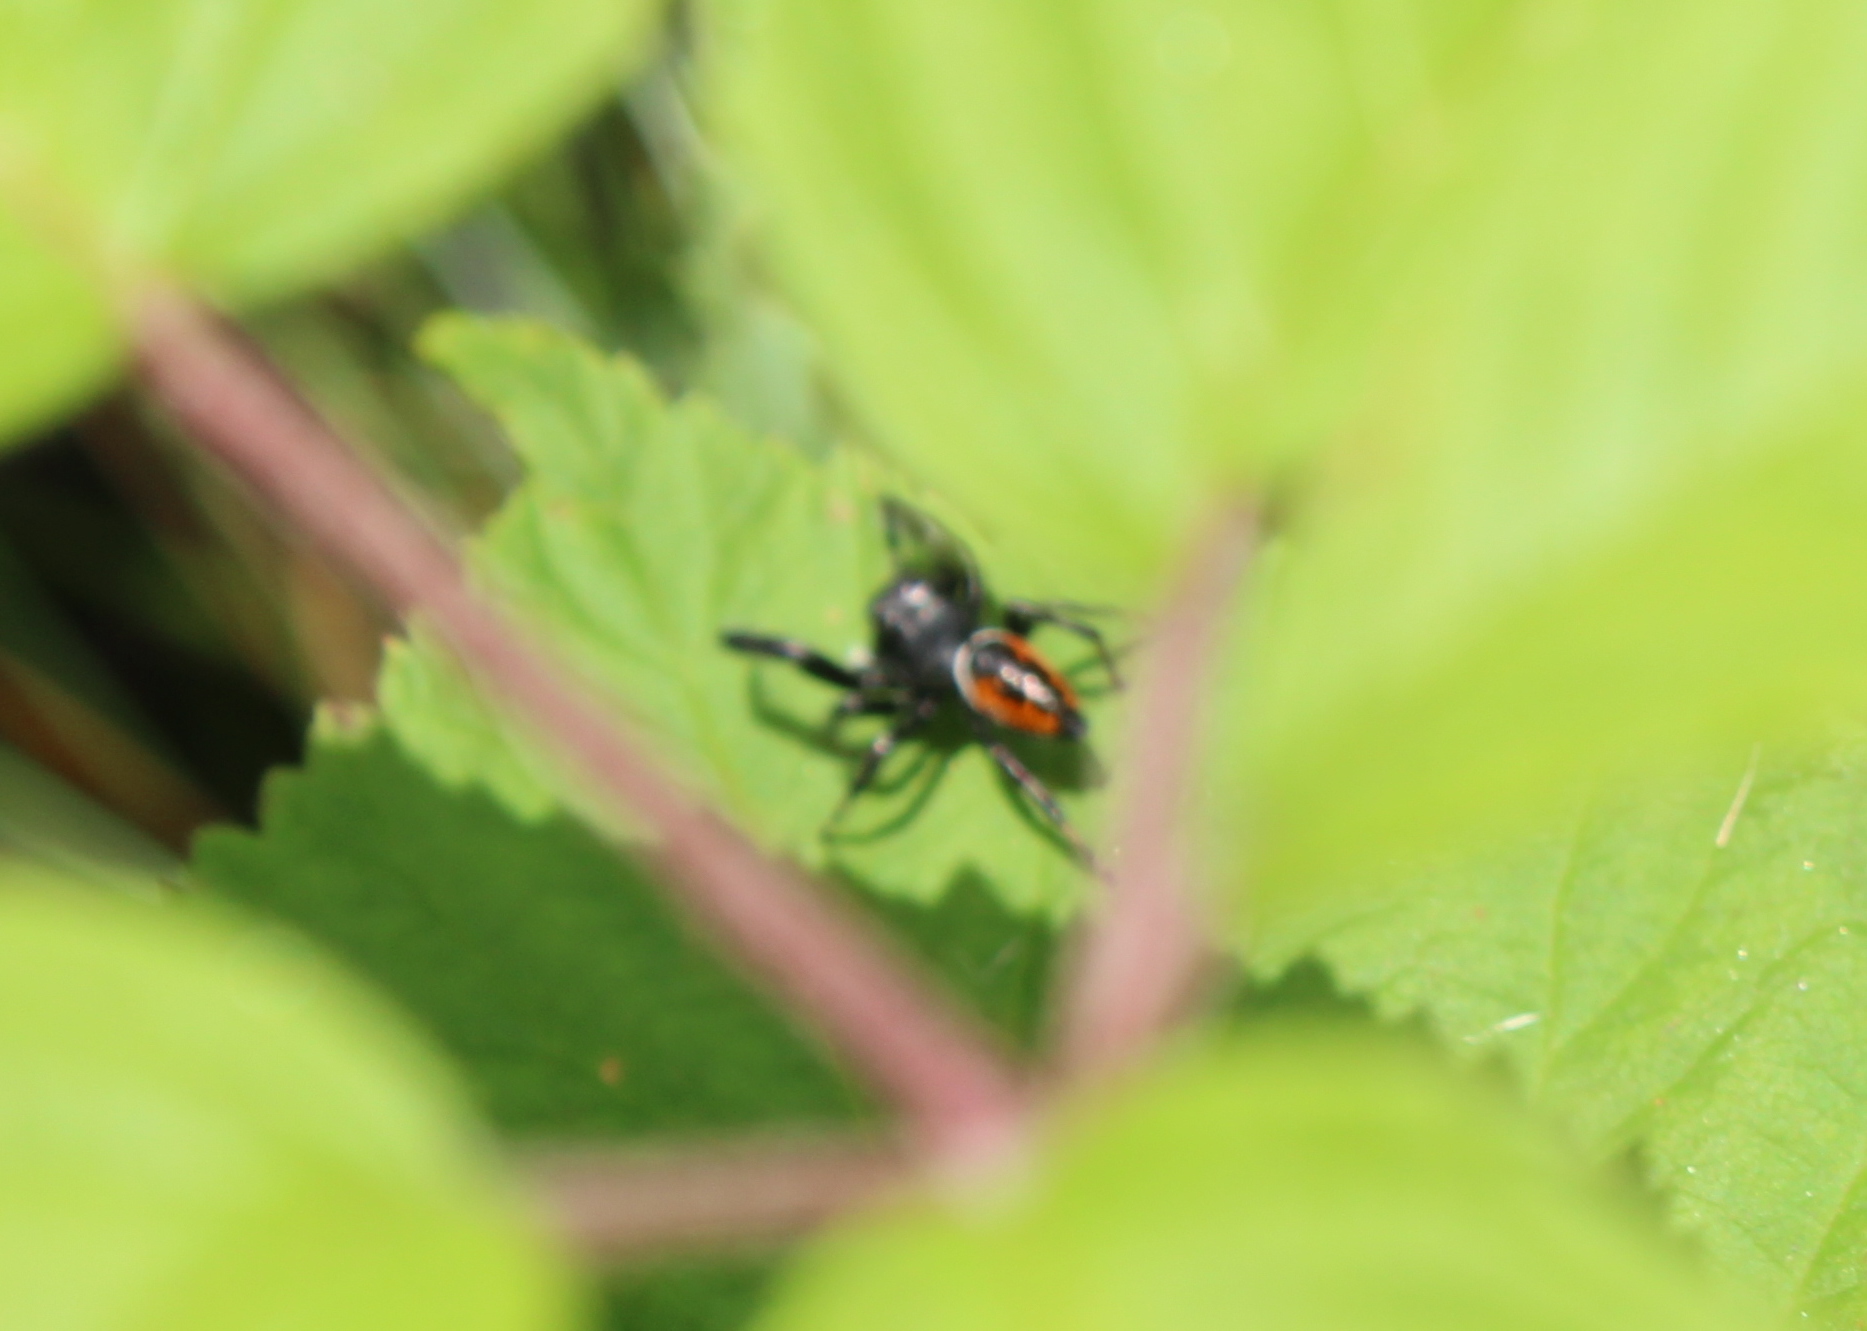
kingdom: Animalia
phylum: Arthropoda
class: Arachnida
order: Araneae
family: Salticidae
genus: Phidippus
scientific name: Phidippus clarus
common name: Brilliant jumping spider
